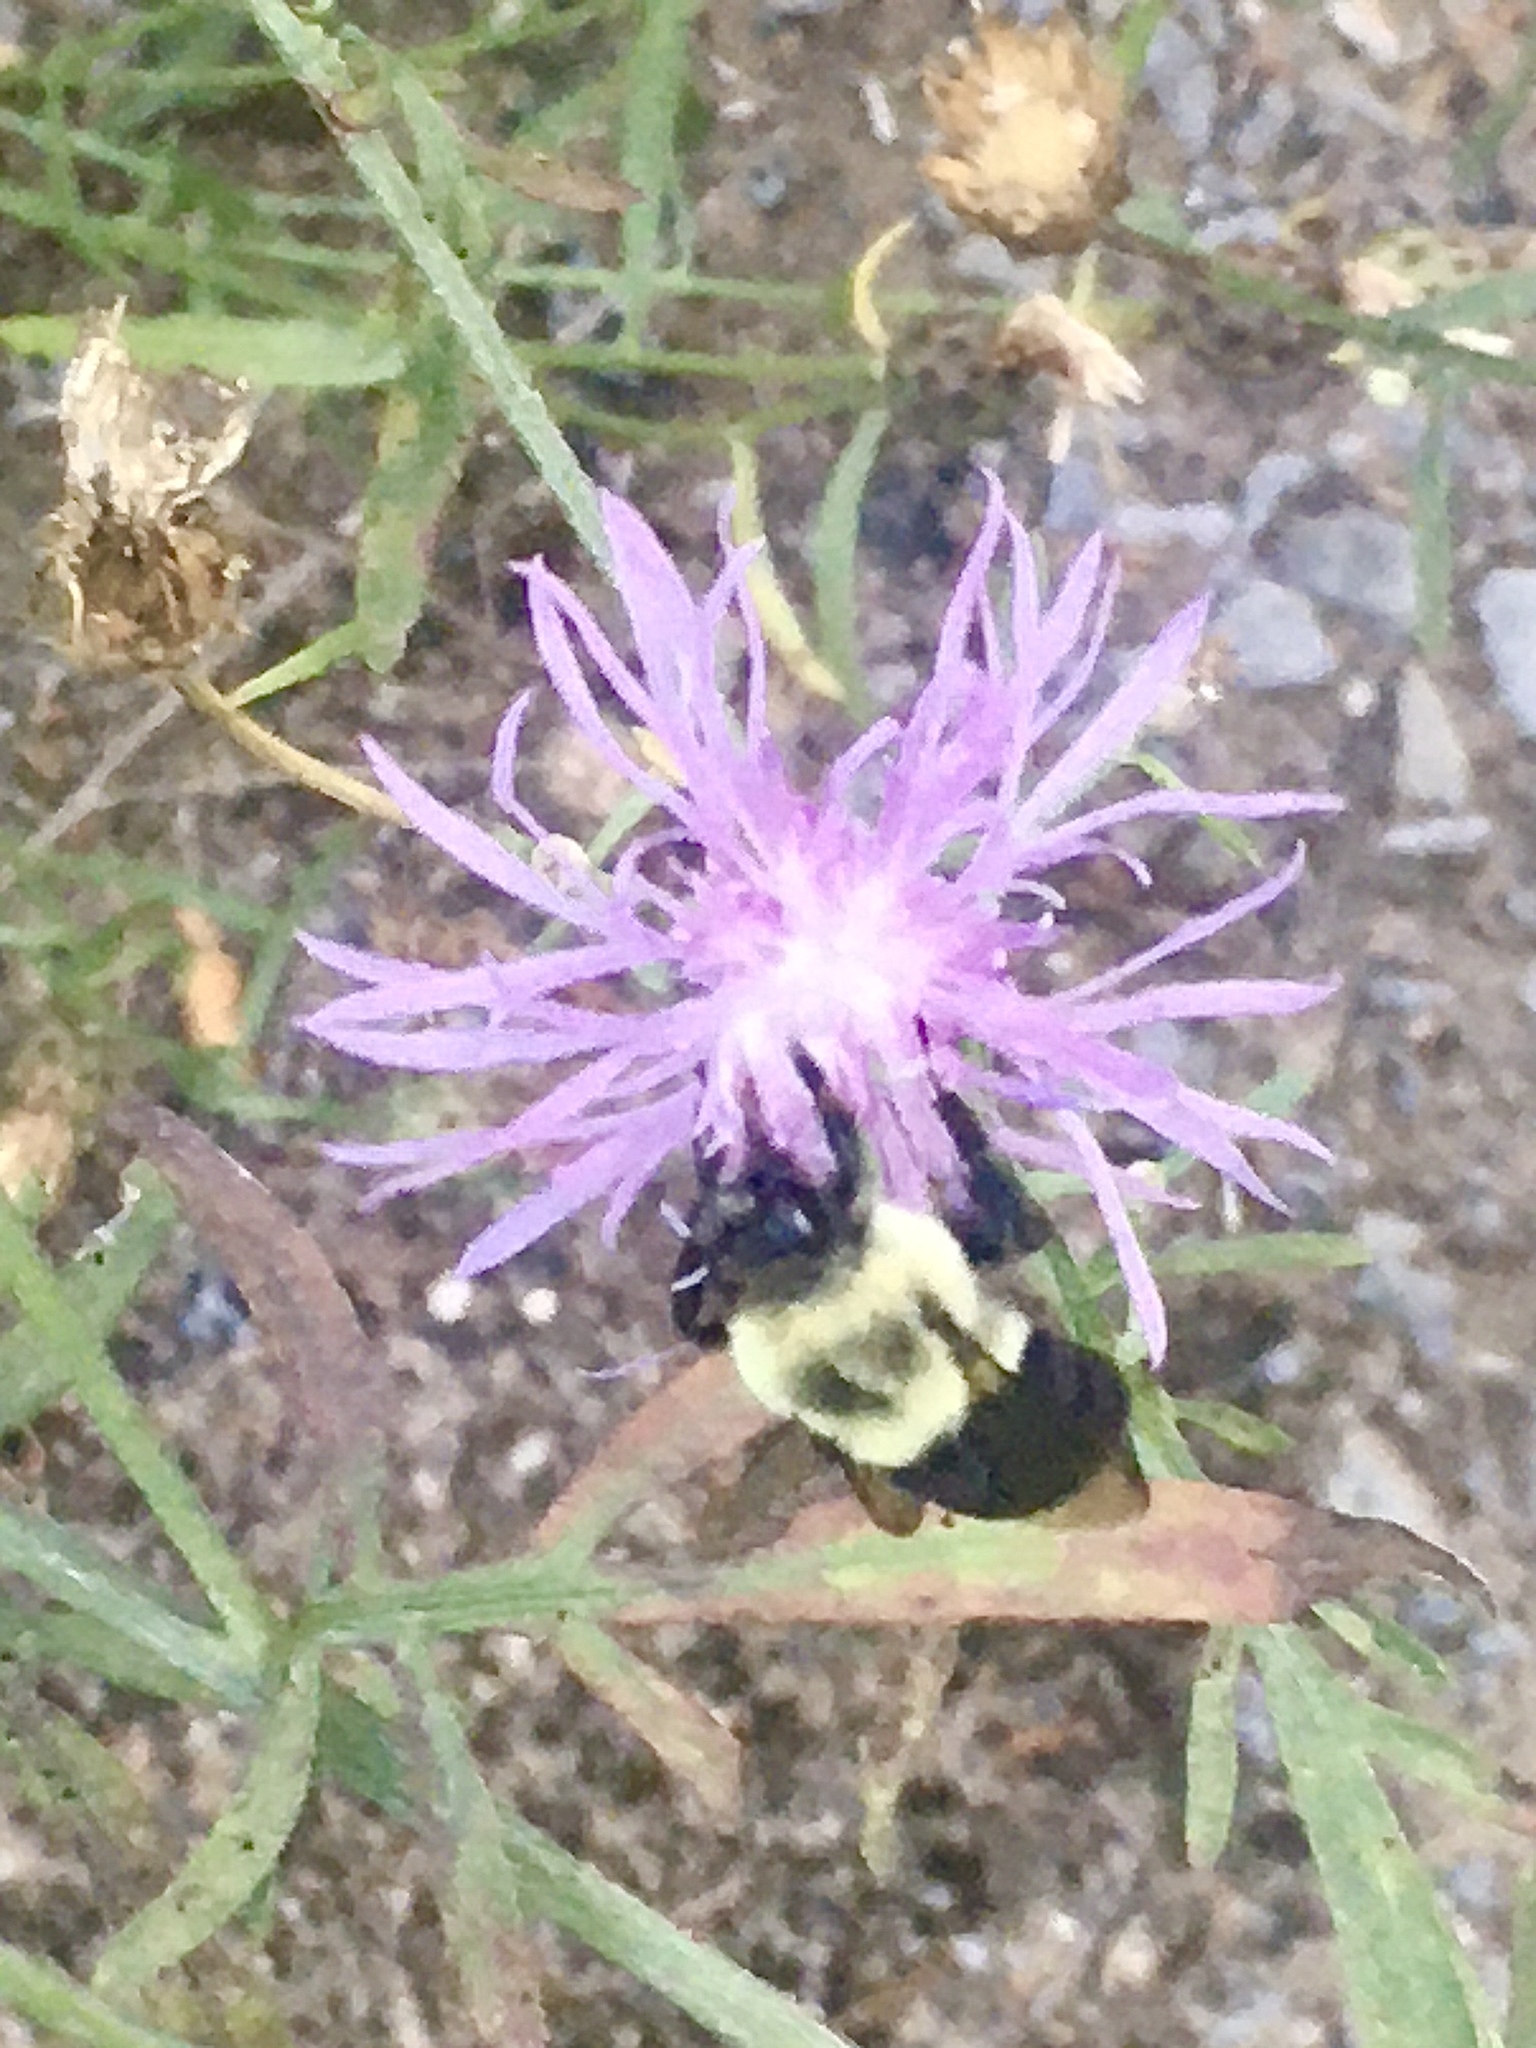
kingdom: Animalia
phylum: Arthropoda
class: Insecta
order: Hymenoptera
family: Apidae
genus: Bombus
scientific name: Bombus impatiens
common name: Common eastern bumble bee
